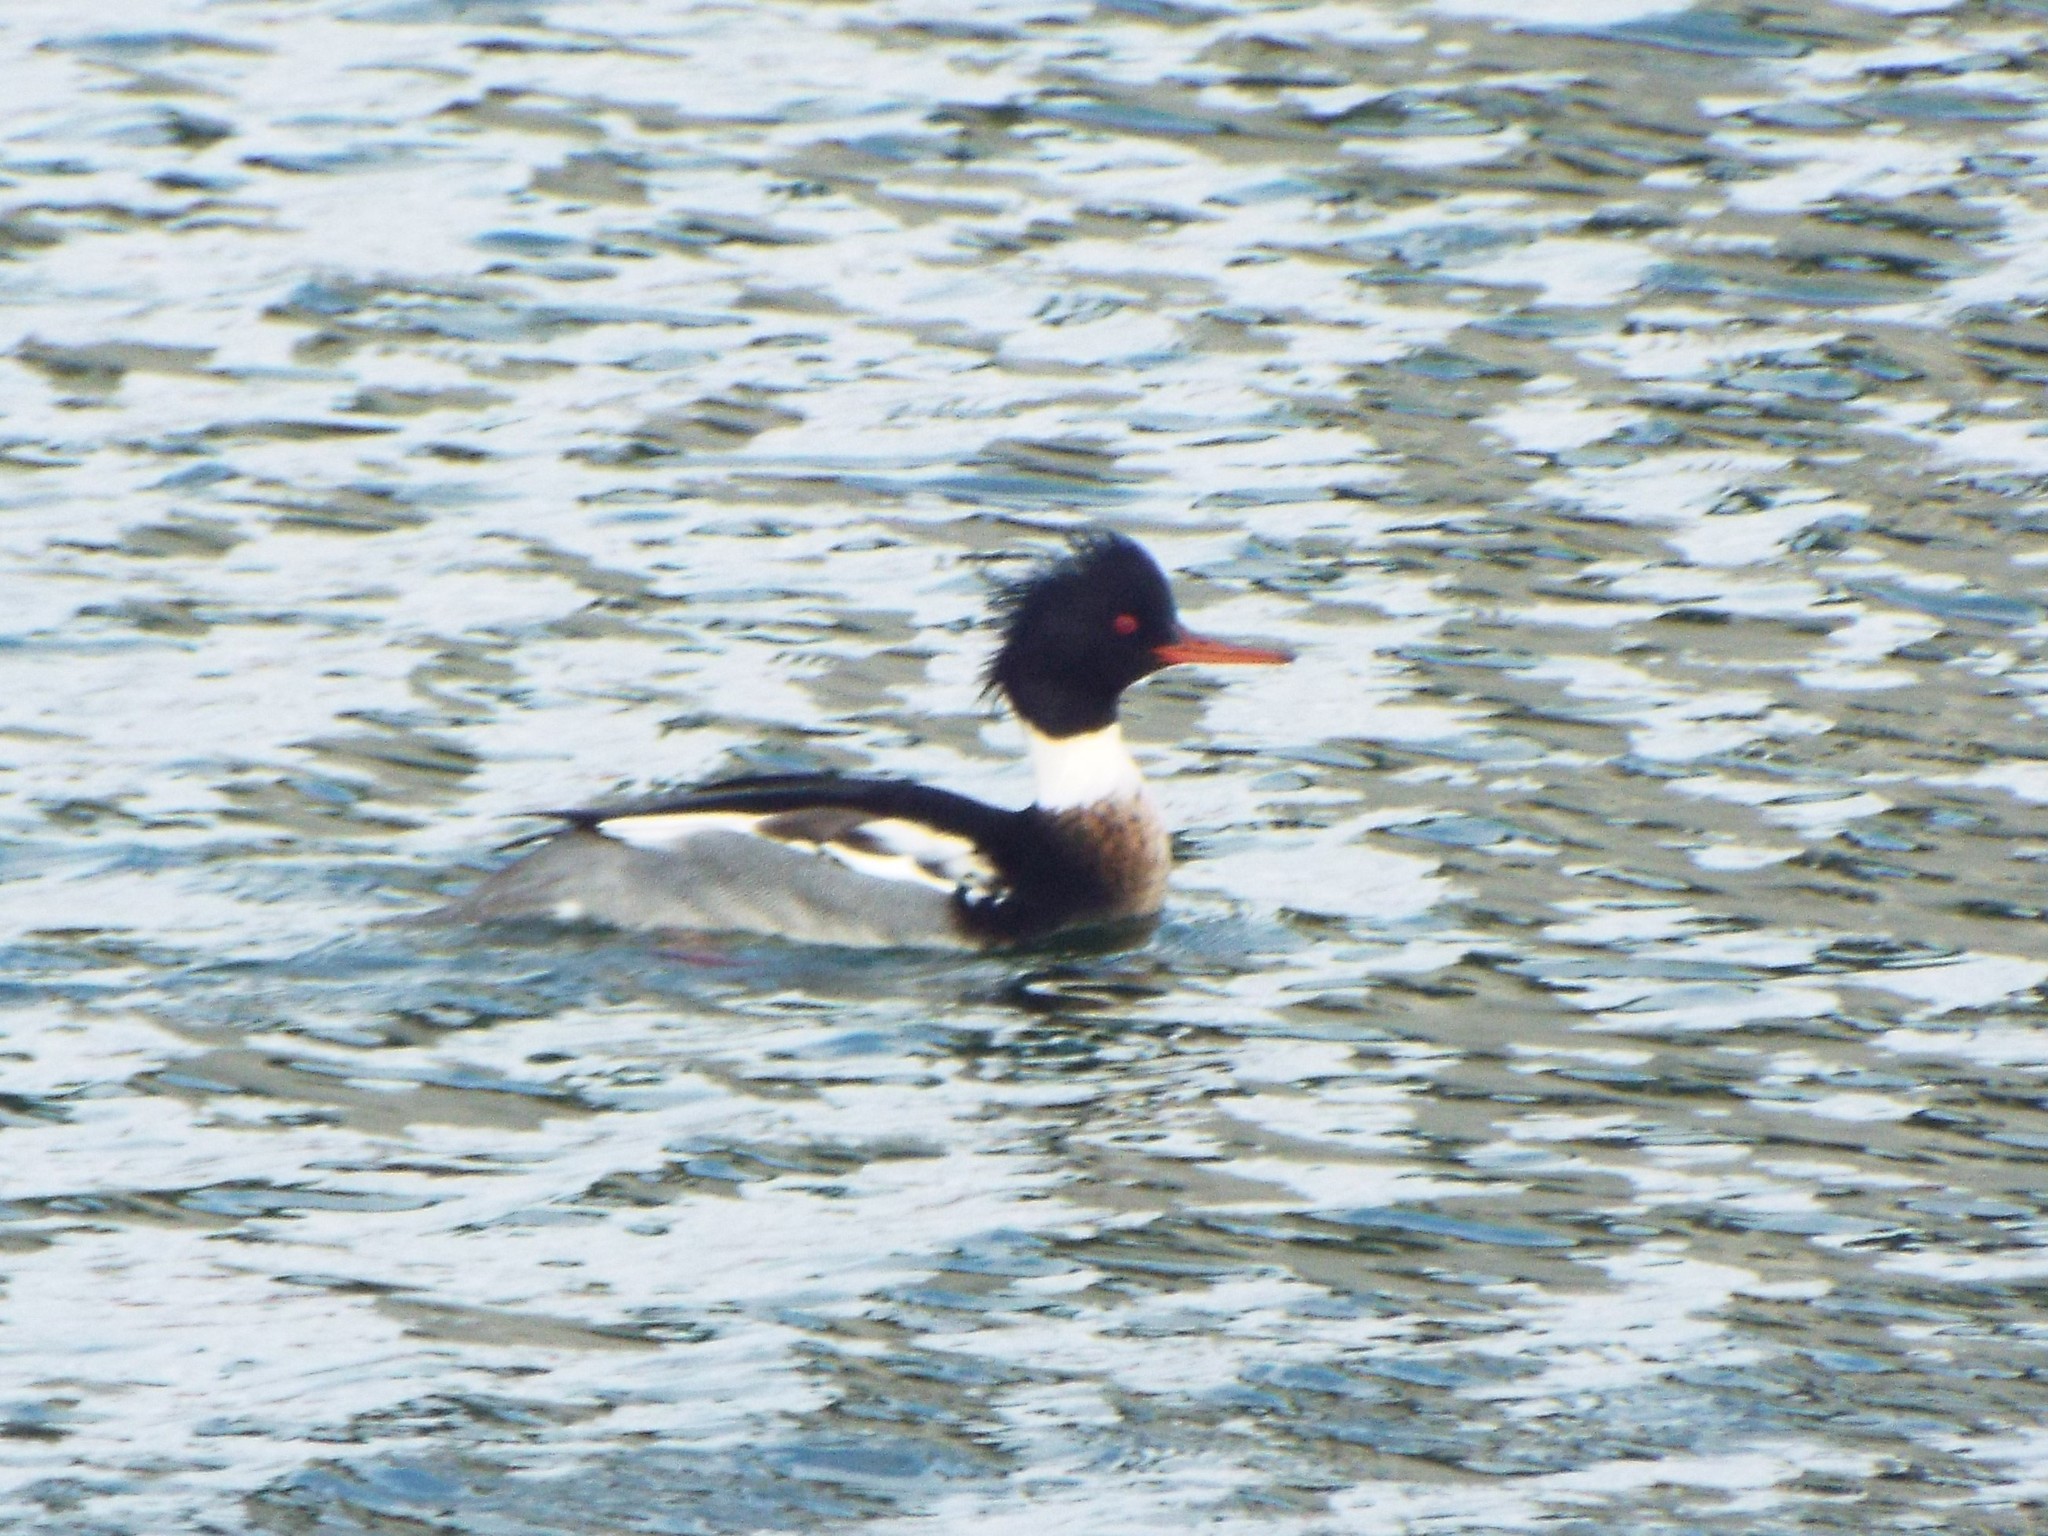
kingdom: Animalia
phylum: Chordata
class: Aves
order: Anseriformes
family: Anatidae
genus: Mergus
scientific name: Mergus serrator
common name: Red-breasted merganser
